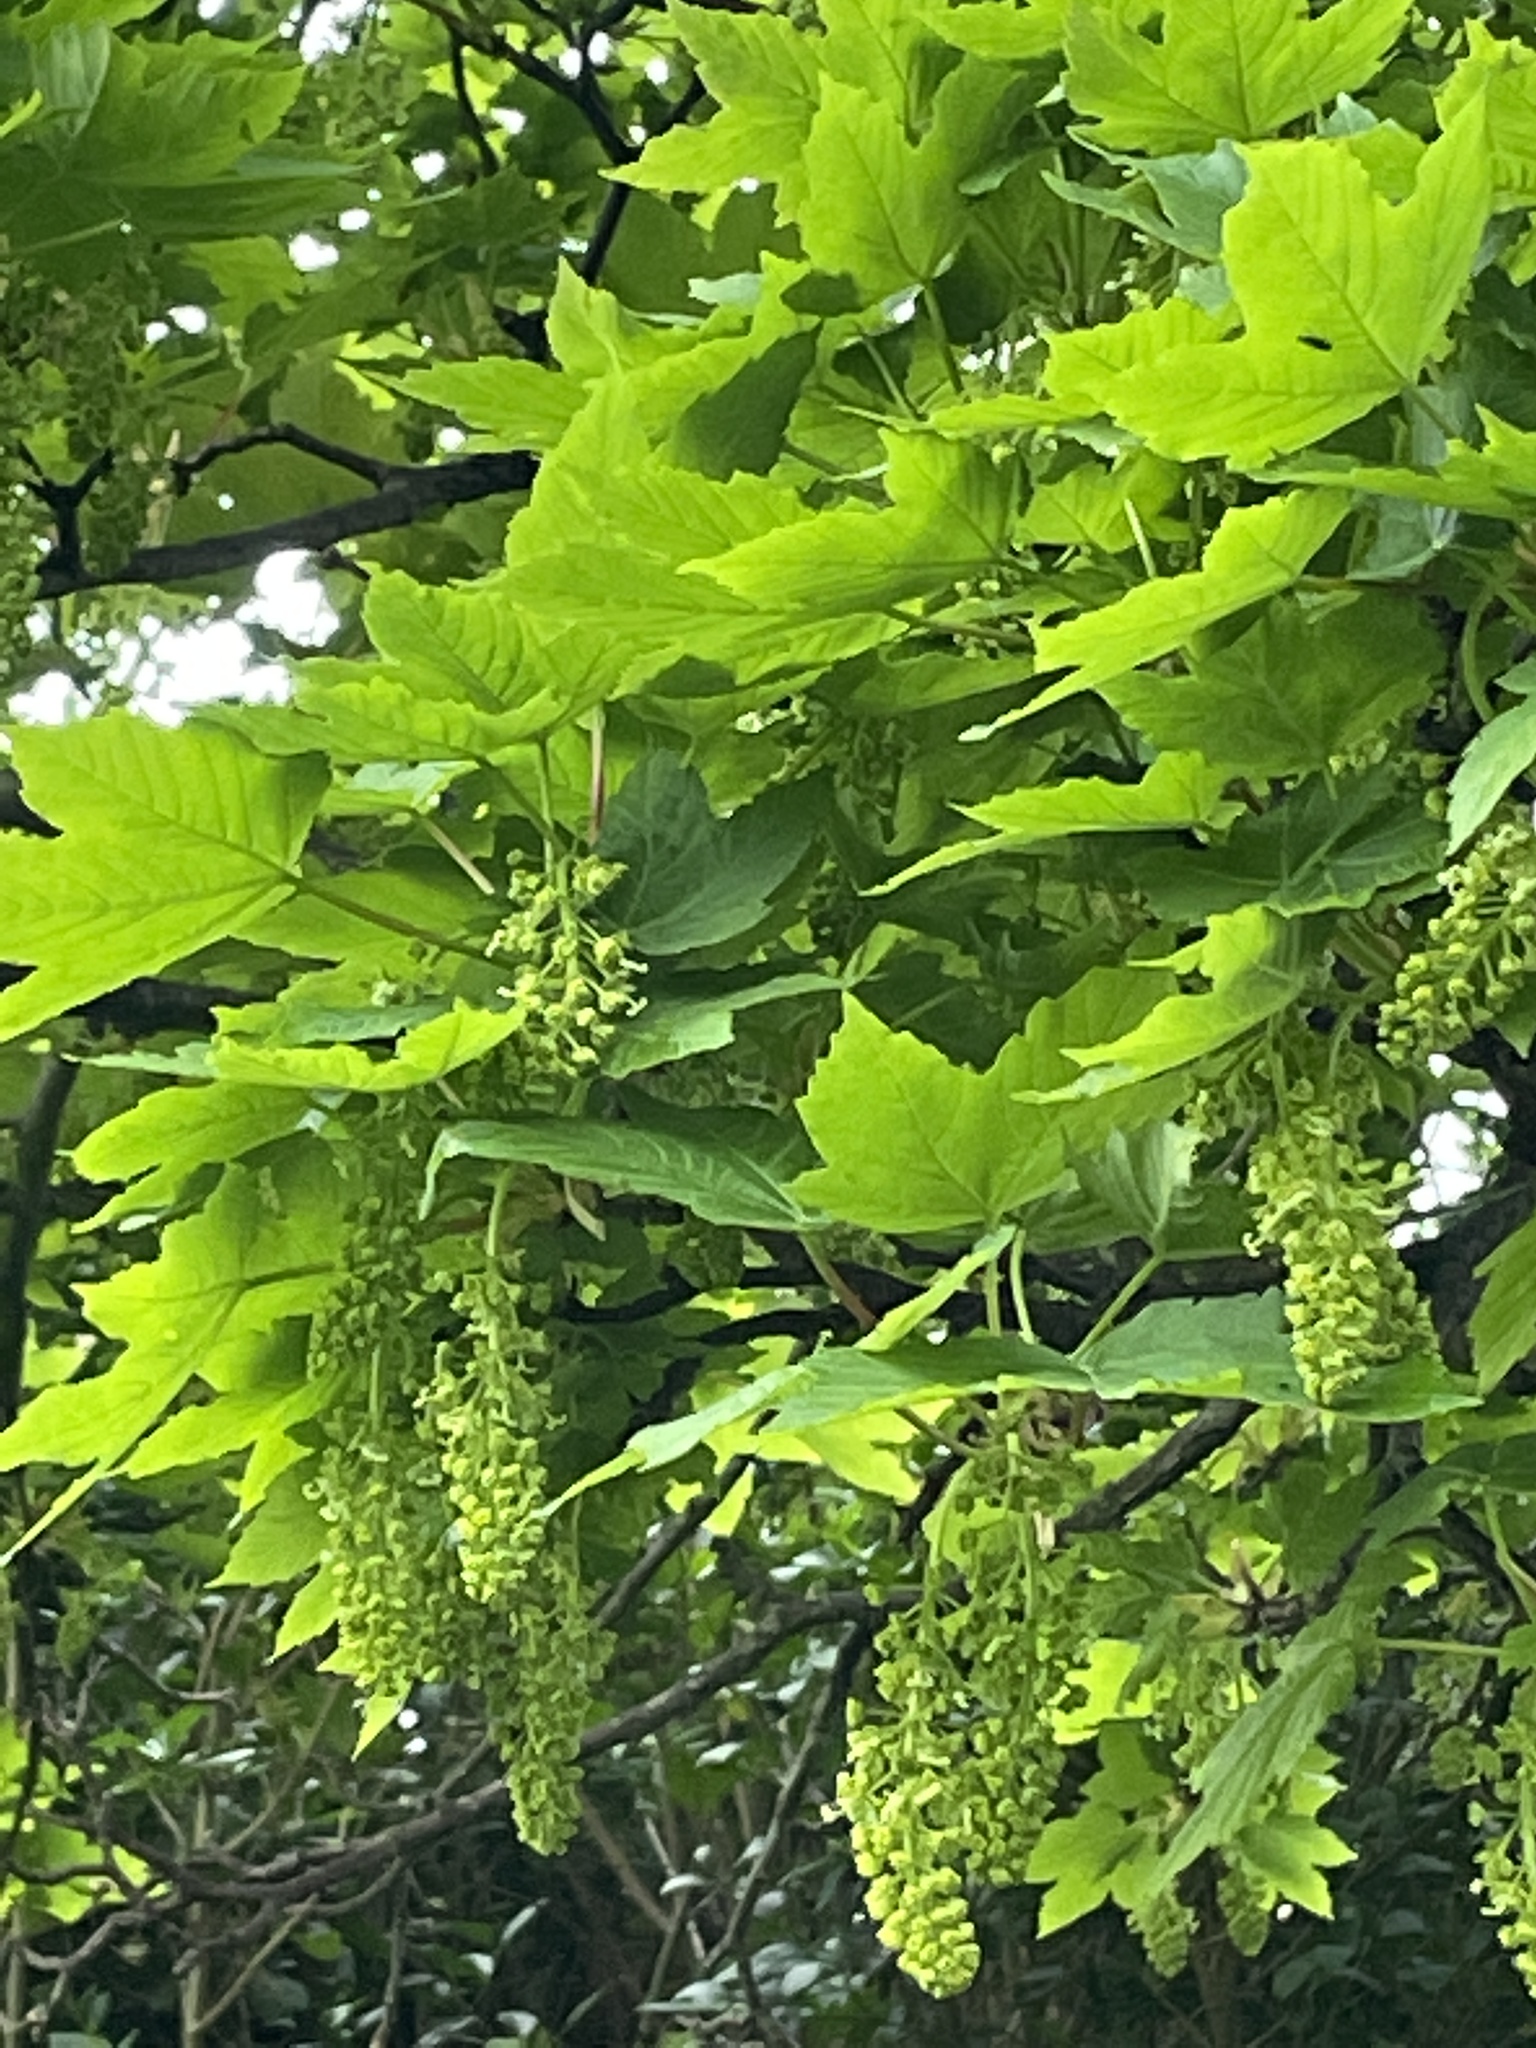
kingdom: Plantae
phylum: Tracheophyta
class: Magnoliopsida
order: Sapindales
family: Sapindaceae
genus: Acer
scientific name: Acer pseudoplatanus
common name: Sycamore
